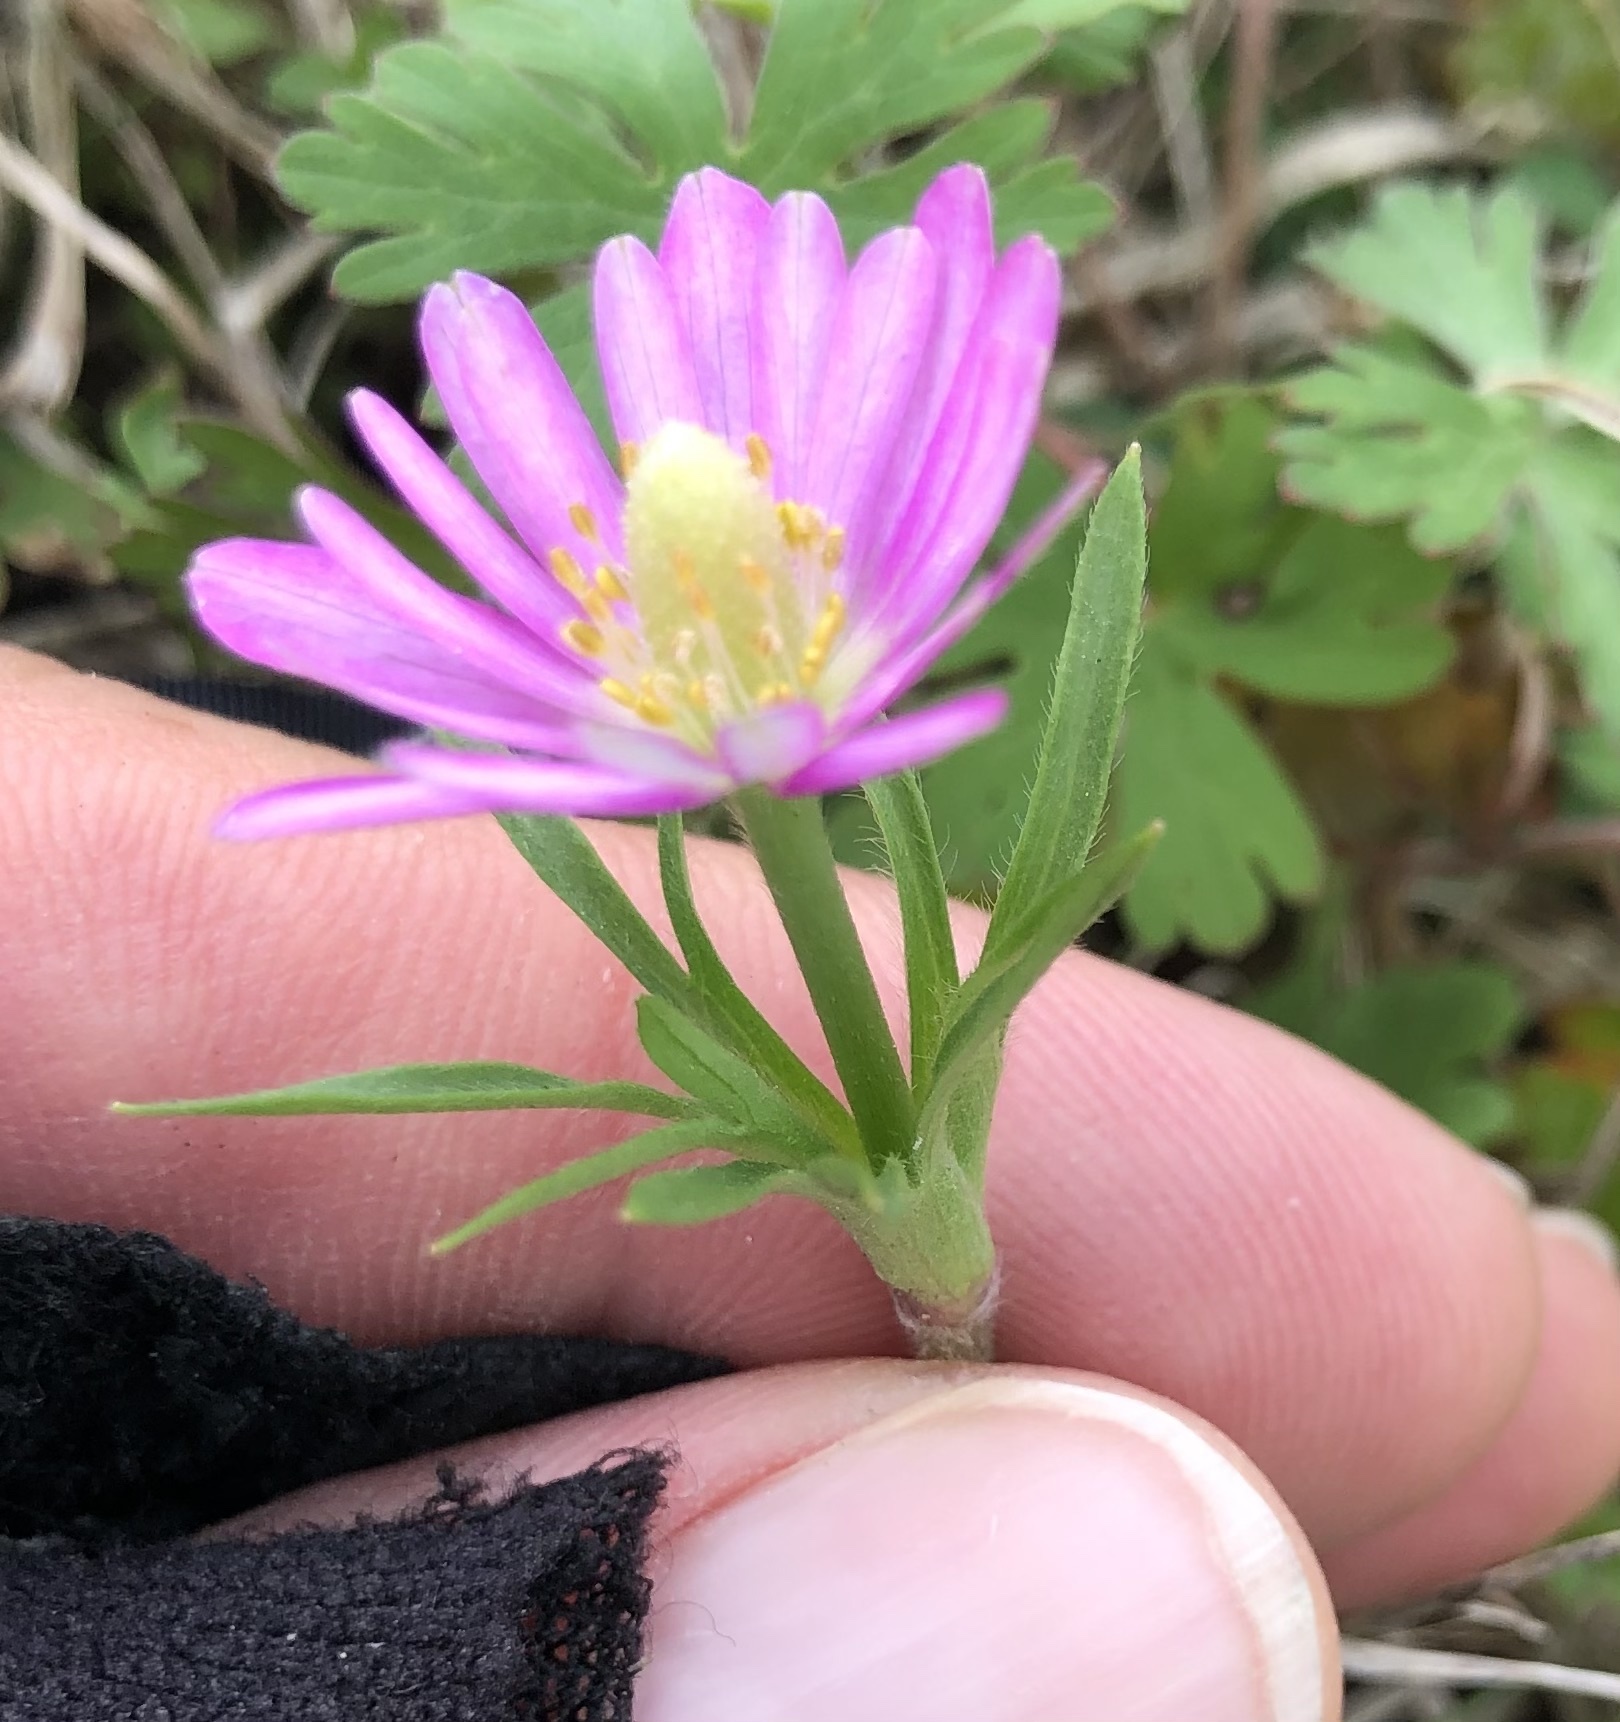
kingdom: Plantae
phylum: Tracheophyta
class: Magnoliopsida
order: Ranunculales
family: Ranunculaceae
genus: Anemone
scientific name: Anemone berlandieri
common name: Ten-petal anemone
